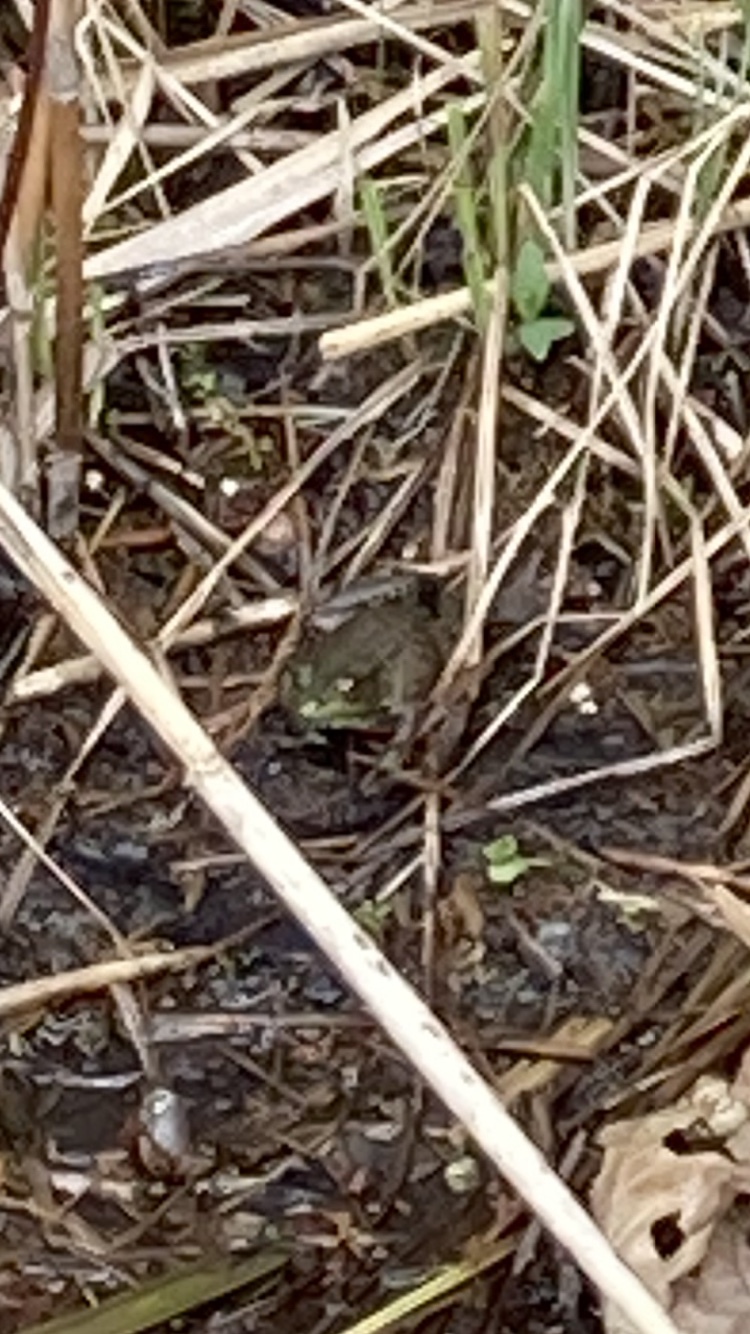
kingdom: Animalia
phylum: Chordata
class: Amphibia
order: Anura
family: Ranidae
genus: Lithobates
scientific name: Lithobates clamitans
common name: Green frog
